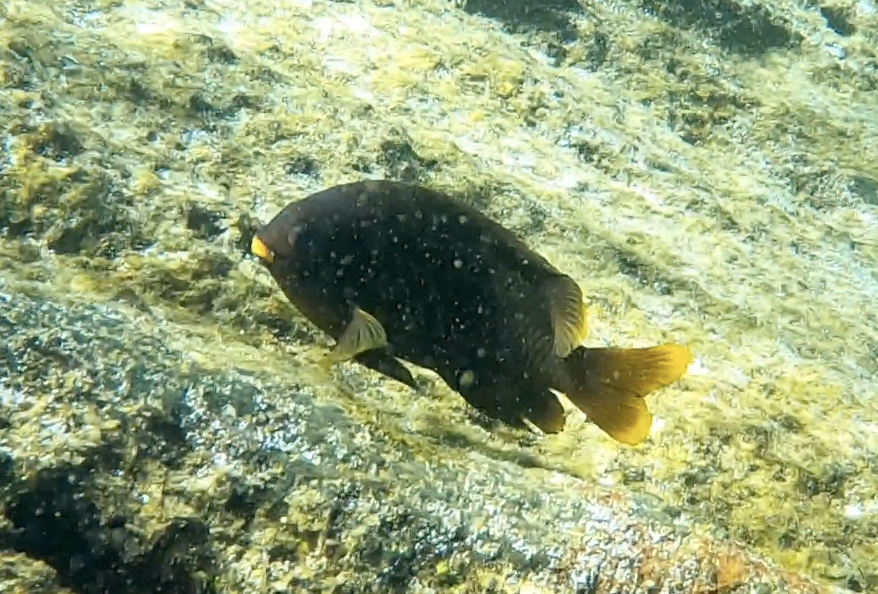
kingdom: Animalia
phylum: Chordata
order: Perciformes
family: Pomacentridae
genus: Stegastes
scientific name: Stegastes arcifrons
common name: Galapagos gregory
